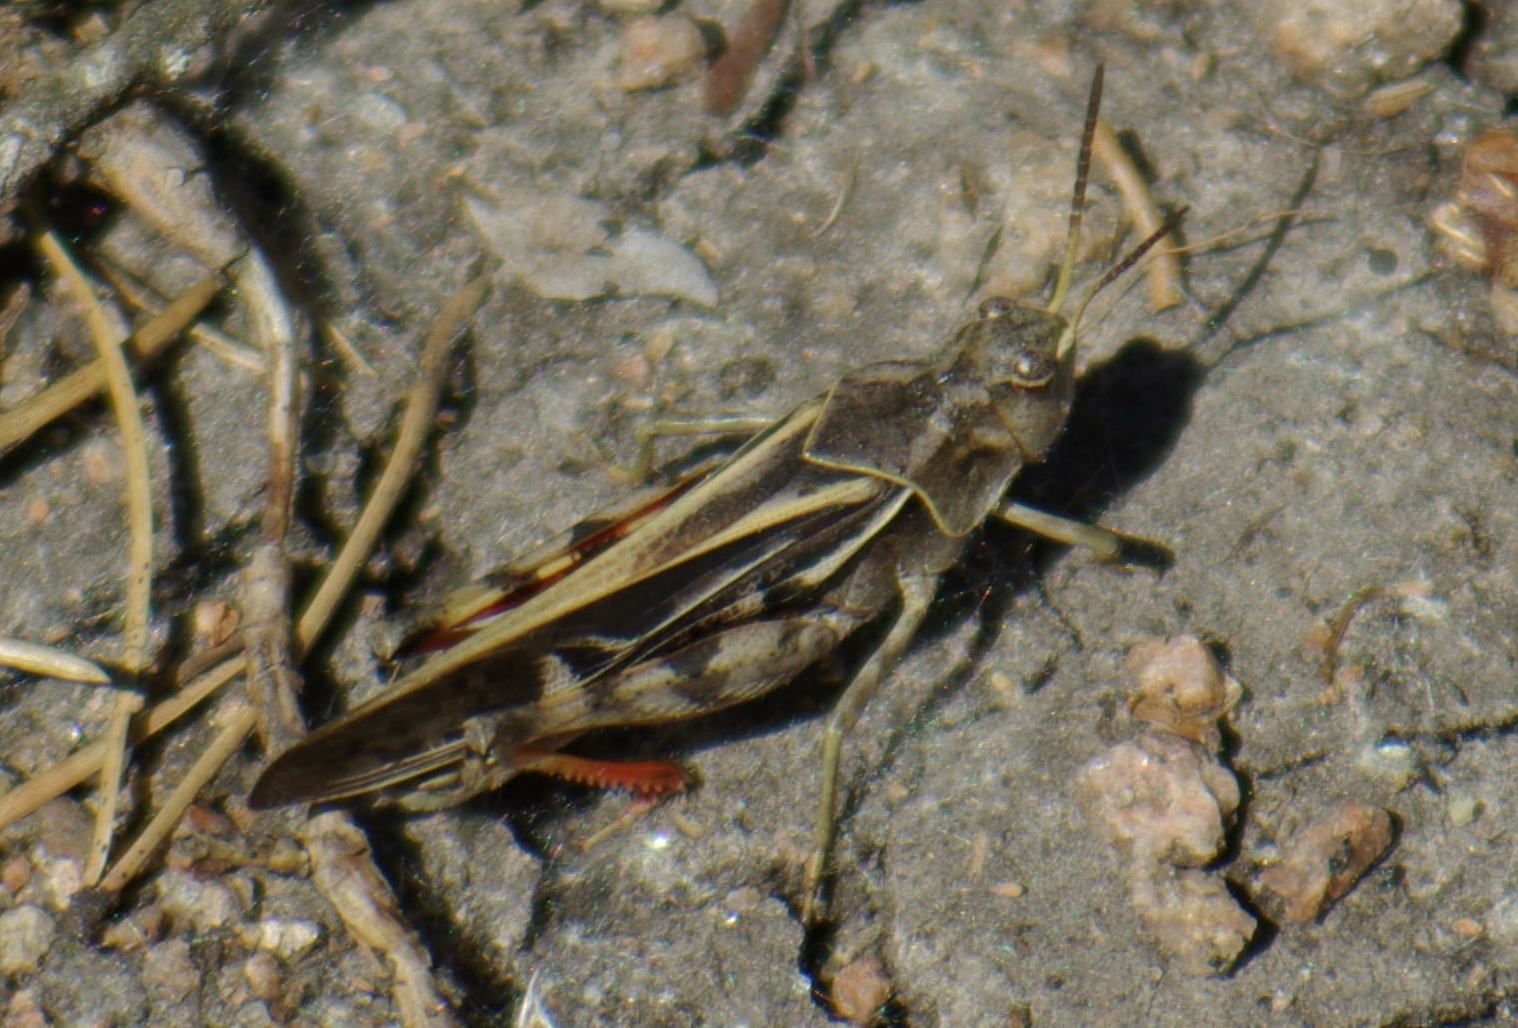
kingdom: Animalia
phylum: Arthropoda
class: Insecta
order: Orthoptera
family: Acrididae
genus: Pardalophora
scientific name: Pardalophora apiculata
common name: Coral-winged locust
